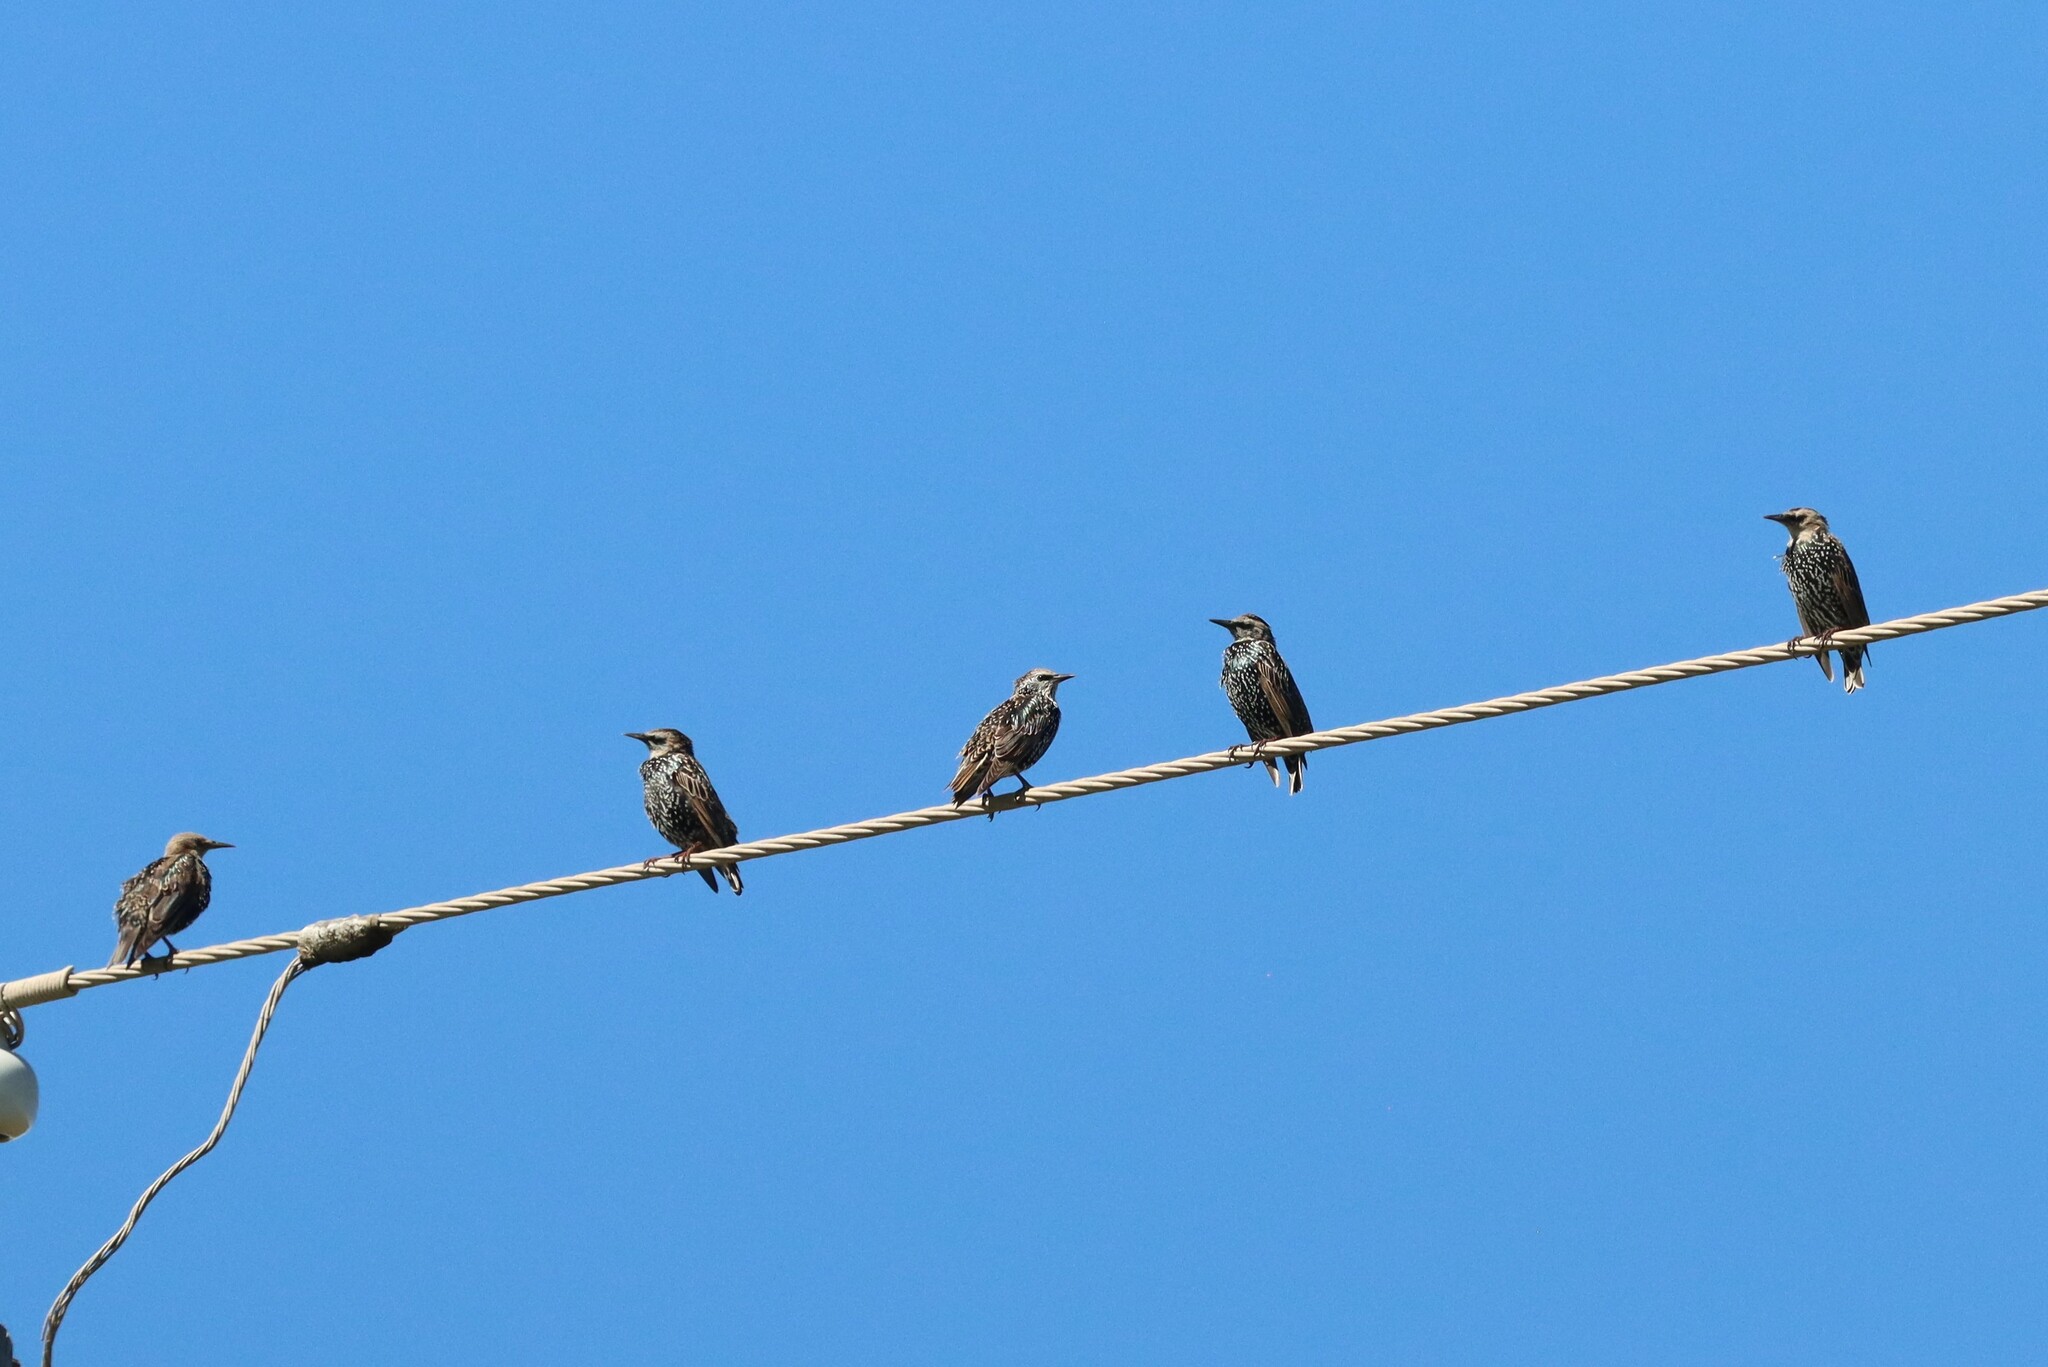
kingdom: Animalia
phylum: Chordata
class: Aves
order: Passeriformes
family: Sturnidae
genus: Sturnus
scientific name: Sturnus vulgaris
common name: Common starling
